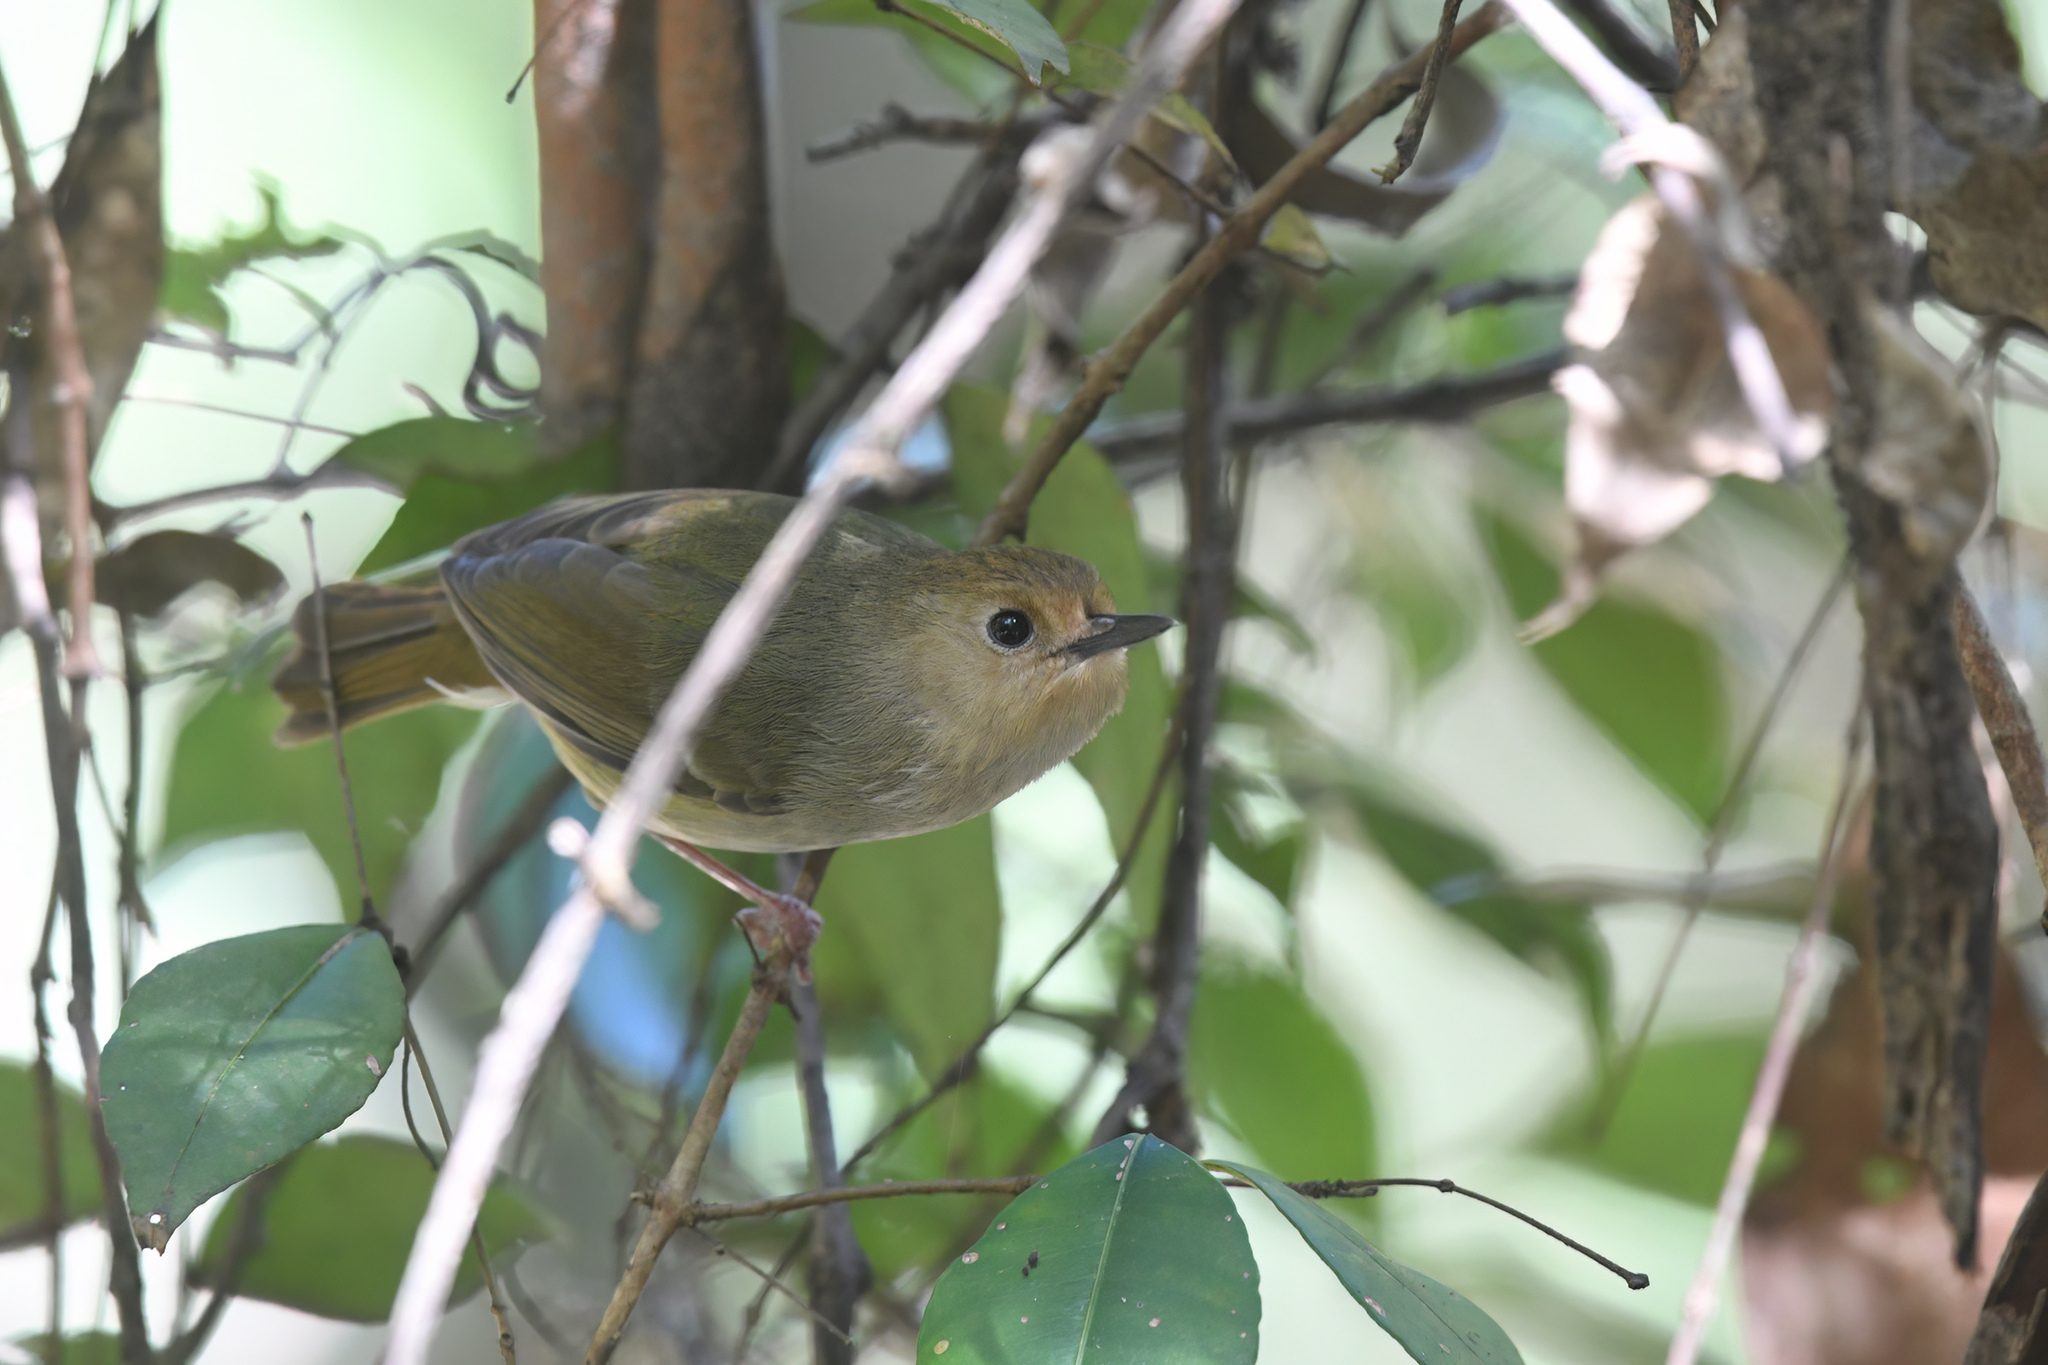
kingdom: Animalia
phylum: Chordata
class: Aves
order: Passeriformes
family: Acanthizidae
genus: Sericornis
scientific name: Sericornis magnirostra
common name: Large-billed scrubwren
